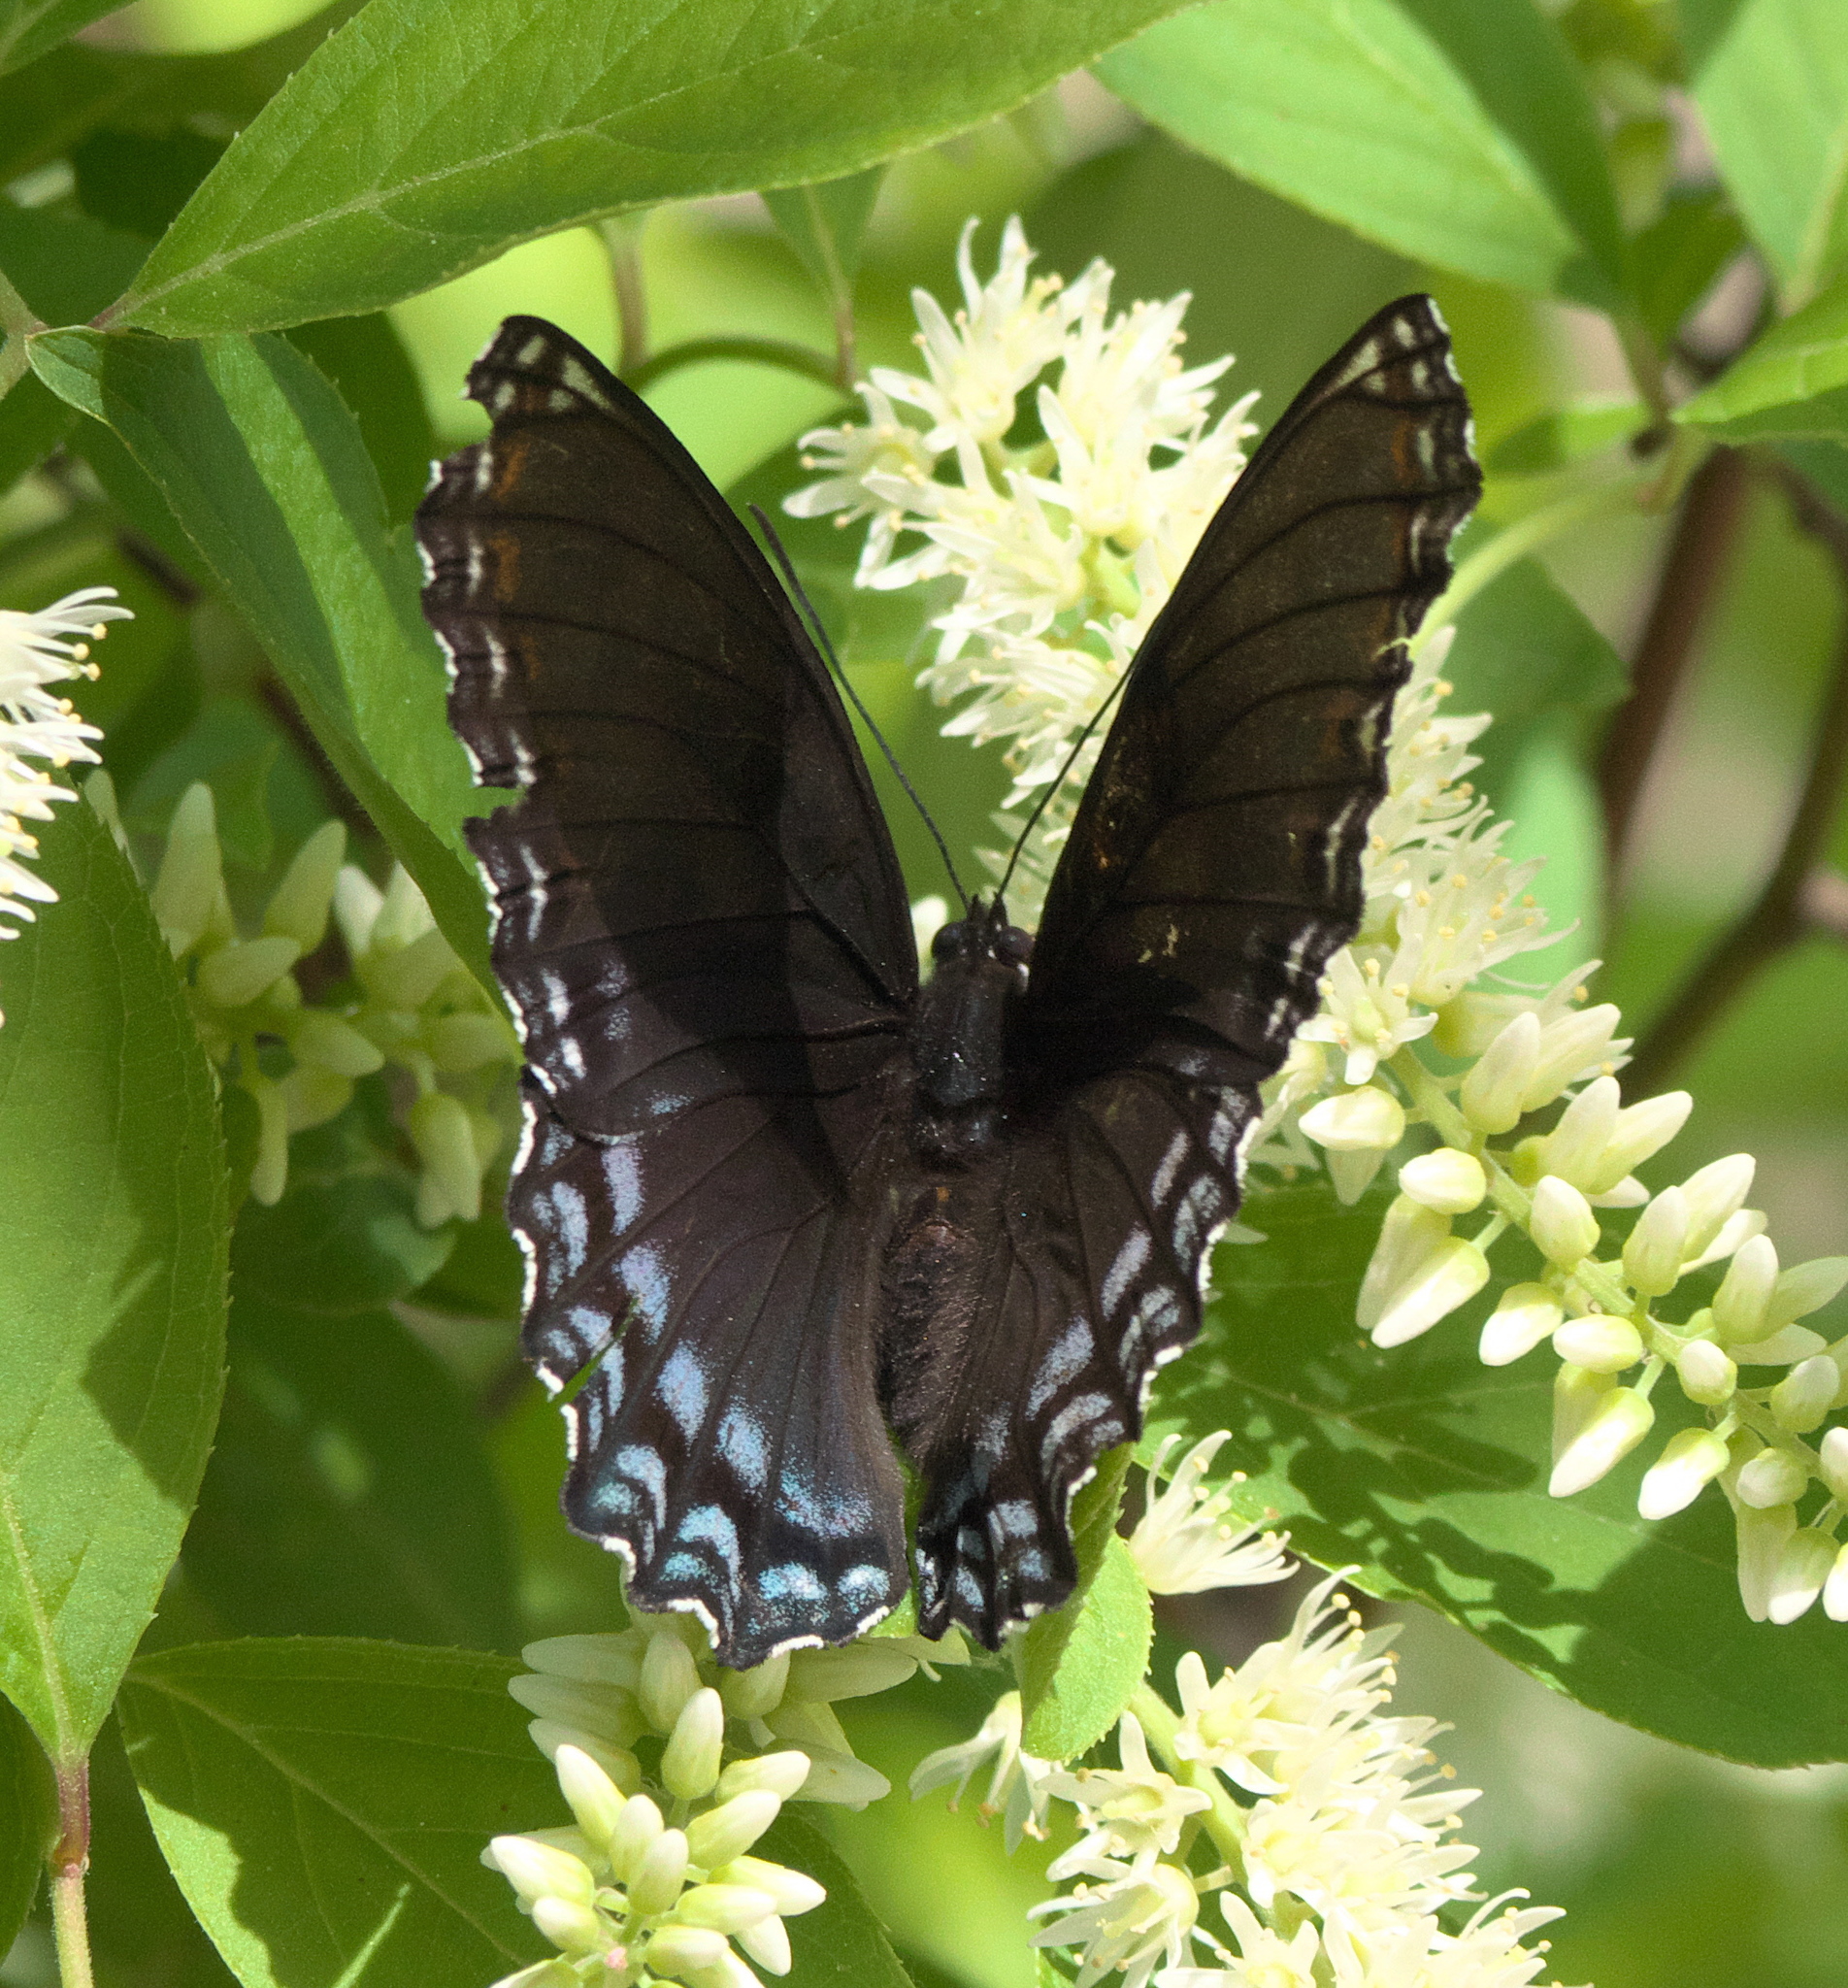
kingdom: Animalia
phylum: Arthropoda
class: Insecta
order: Lepidoptera
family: Nymphalidae
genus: Limenitis
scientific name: Limenitis astyanax
